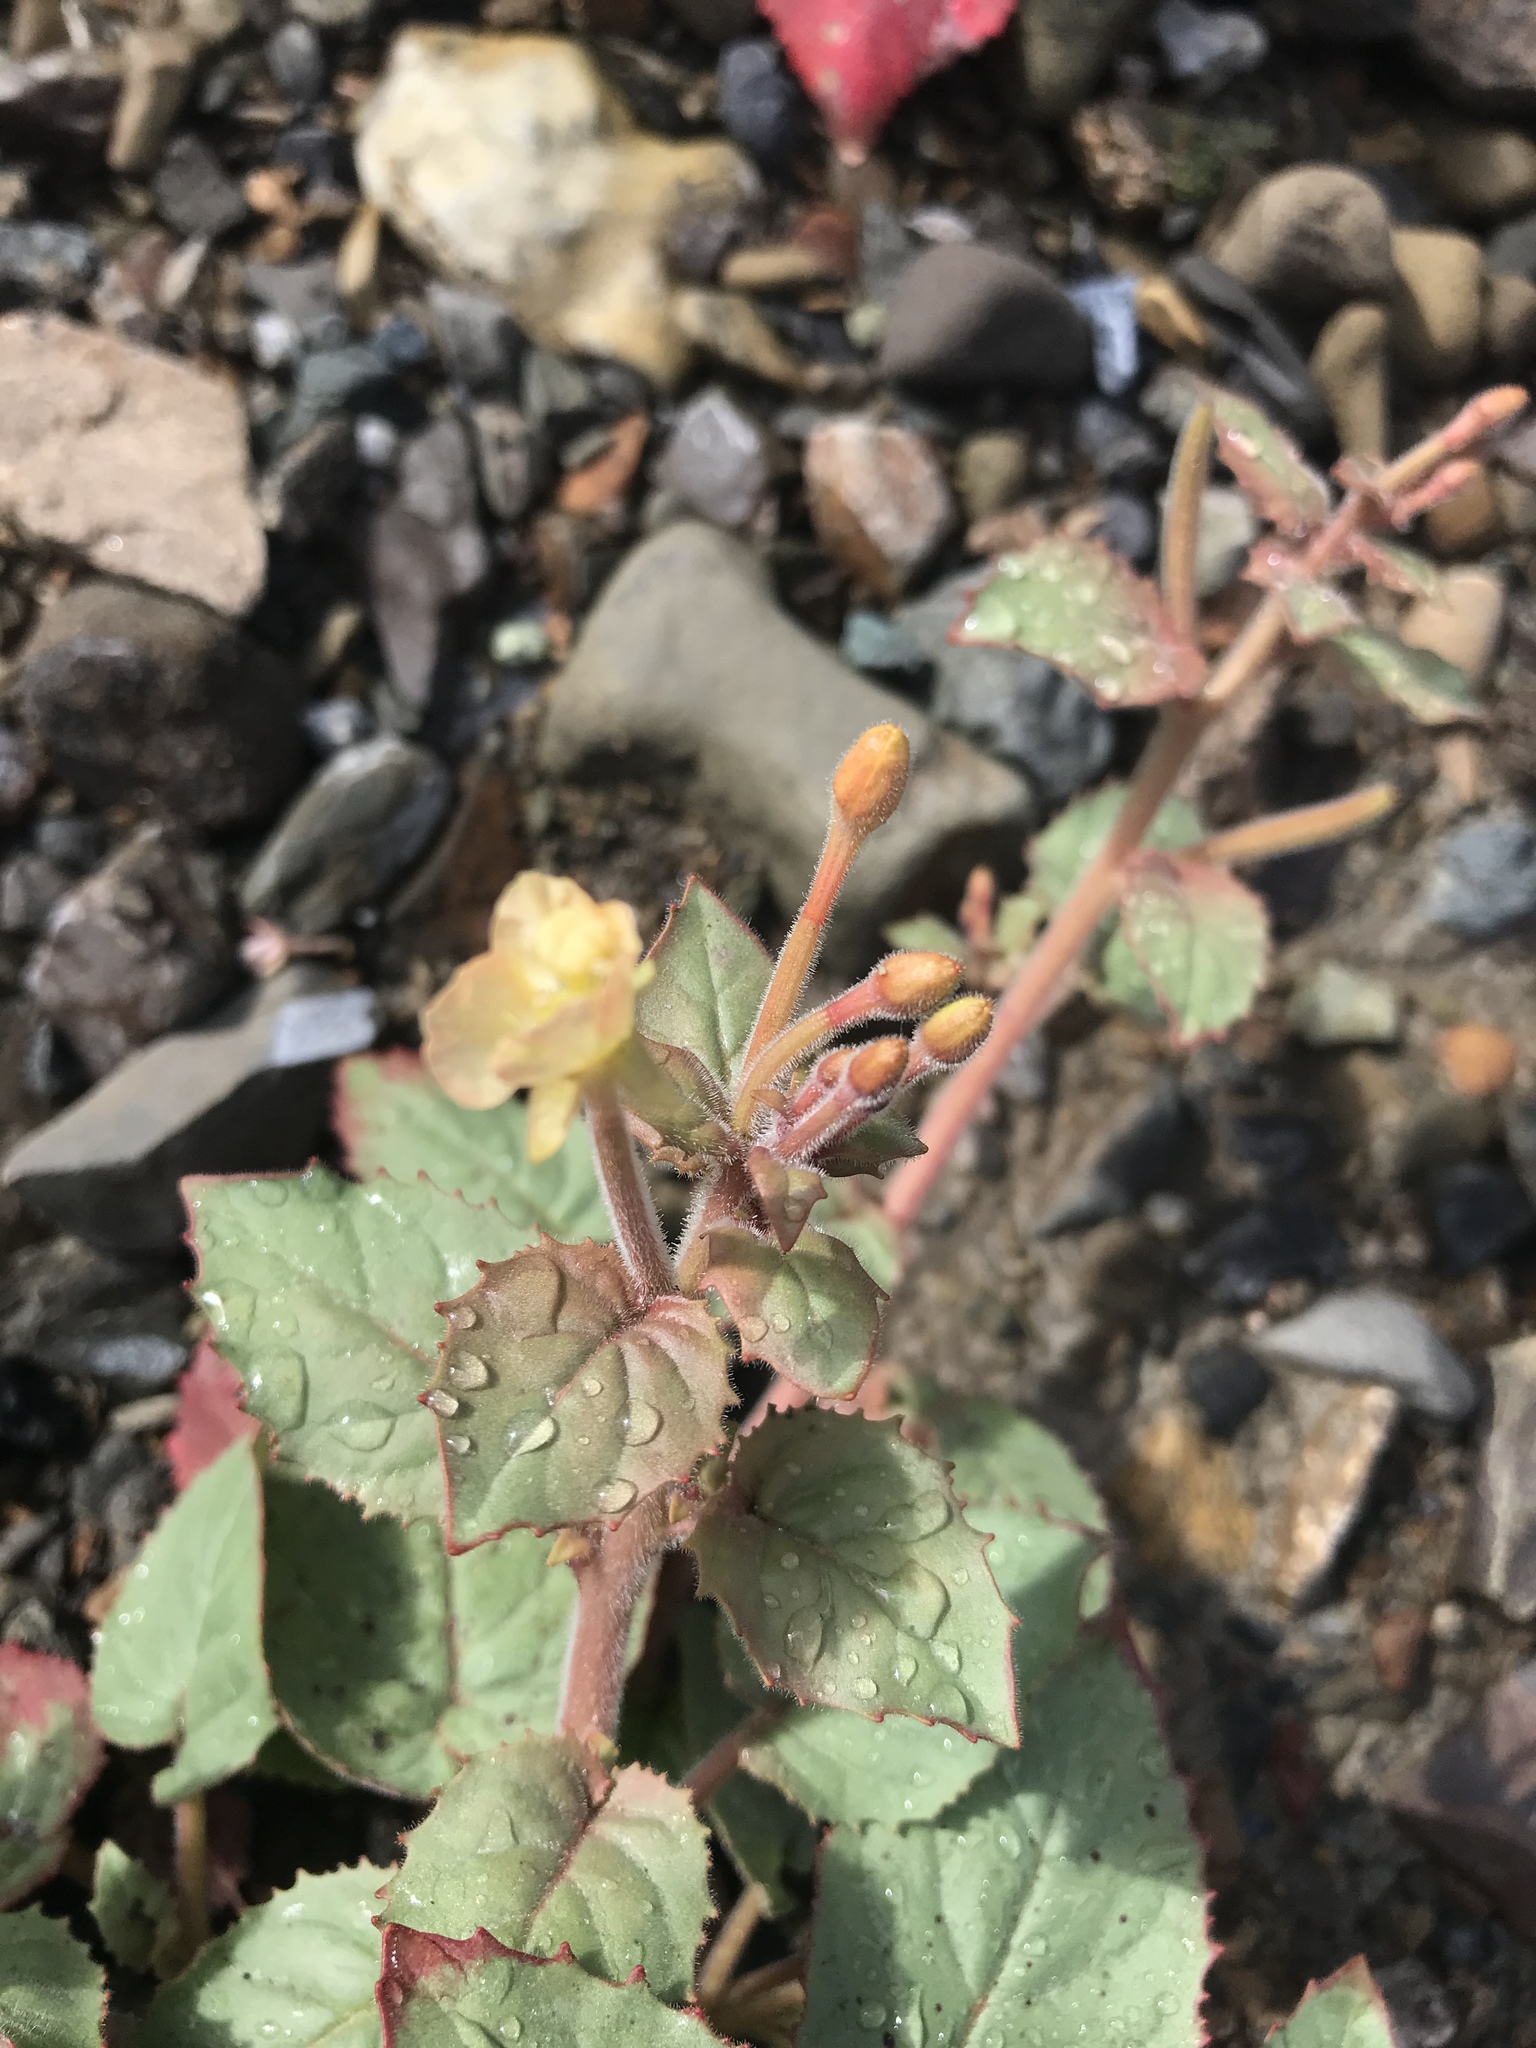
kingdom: Plantae
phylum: Tracheophyta
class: Magnoliopsida
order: Myrtales
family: Onagraceae
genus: Chylismia
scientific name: Chylismia cardiophylla
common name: Heartleaf suncup
